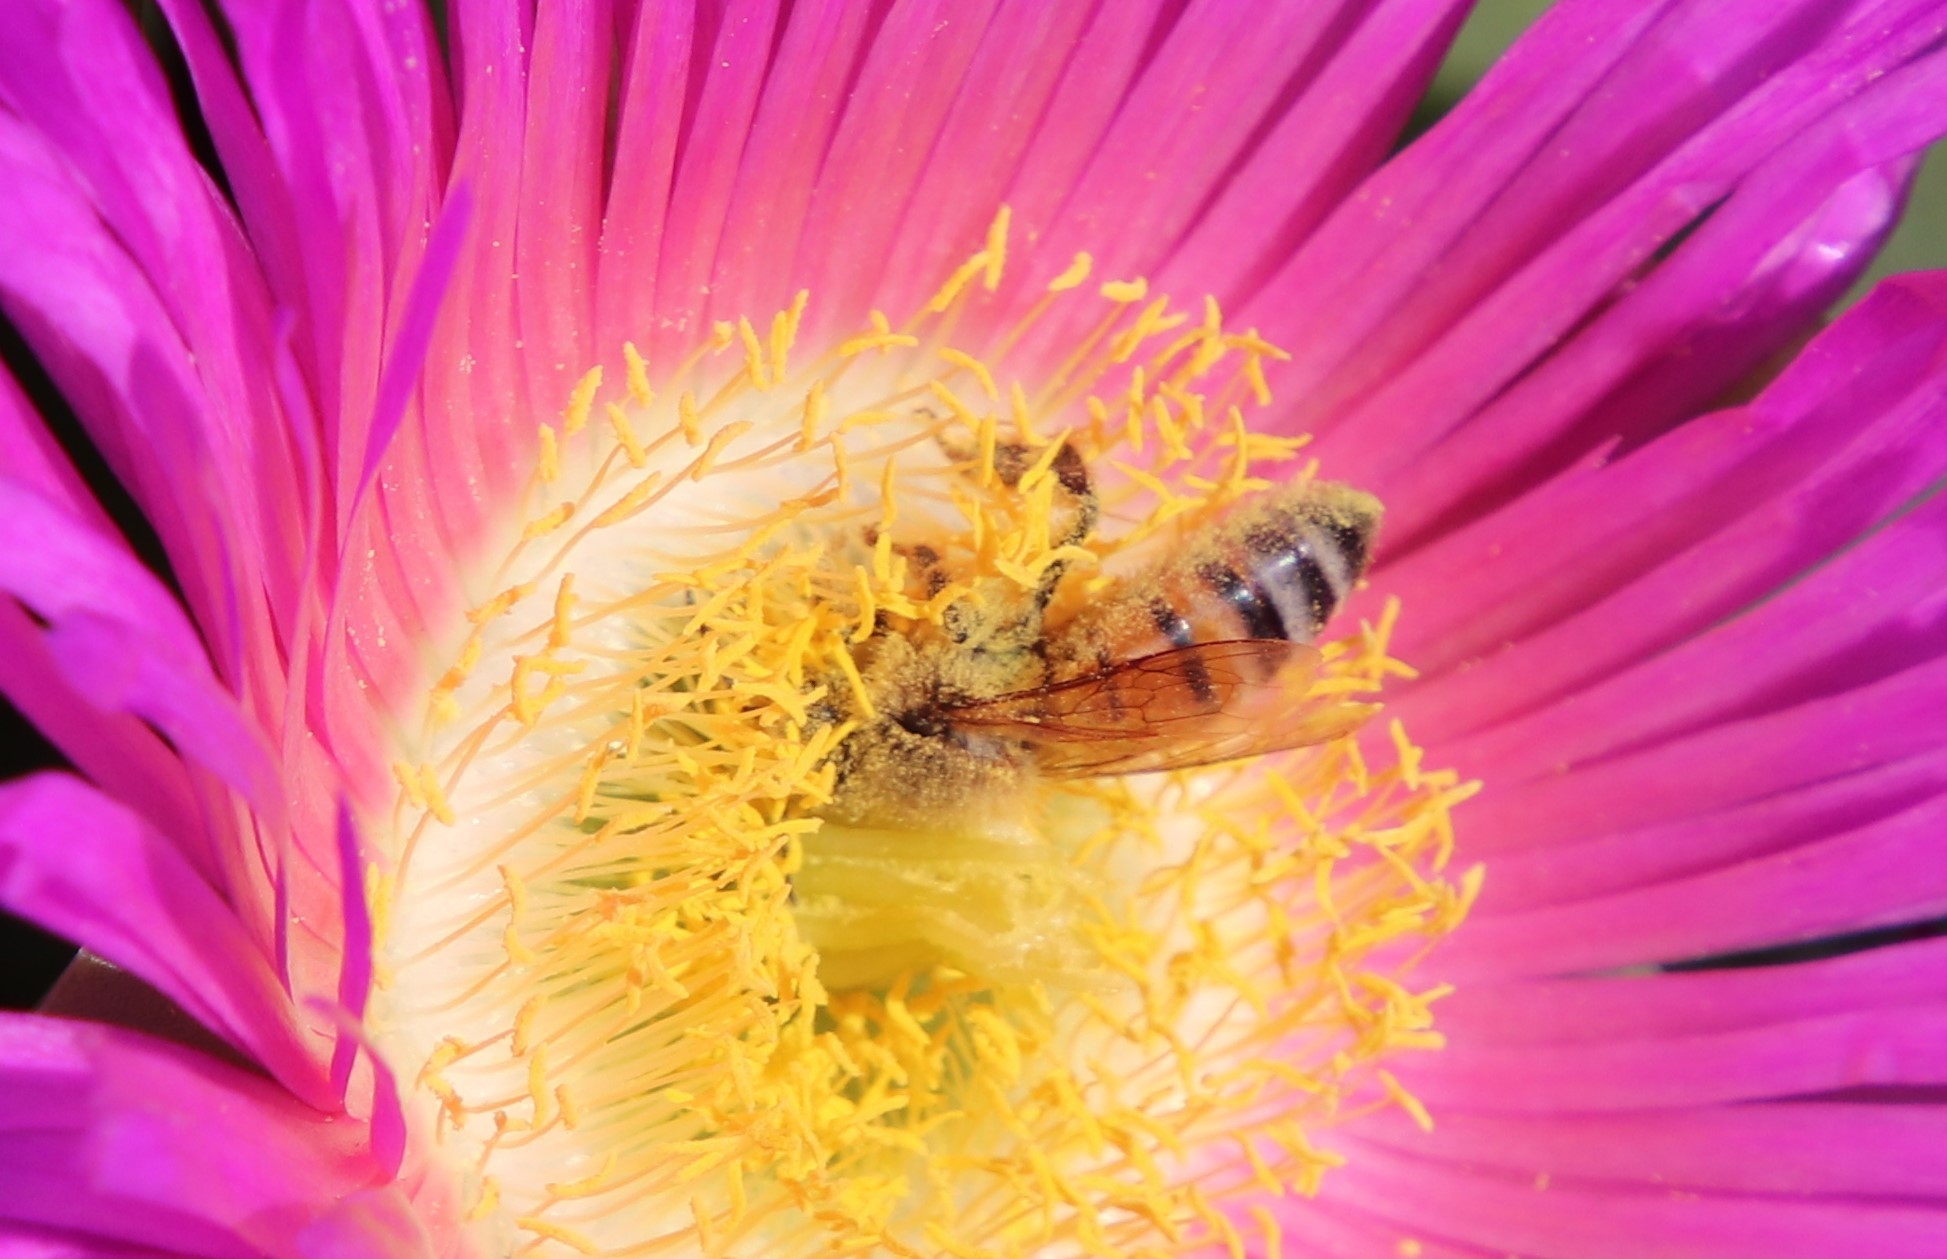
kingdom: Animalia
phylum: Arthropoda
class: Insecta
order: Hymenoptera
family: Apidae
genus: Apis
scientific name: Apis mellifera
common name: Honey bee
